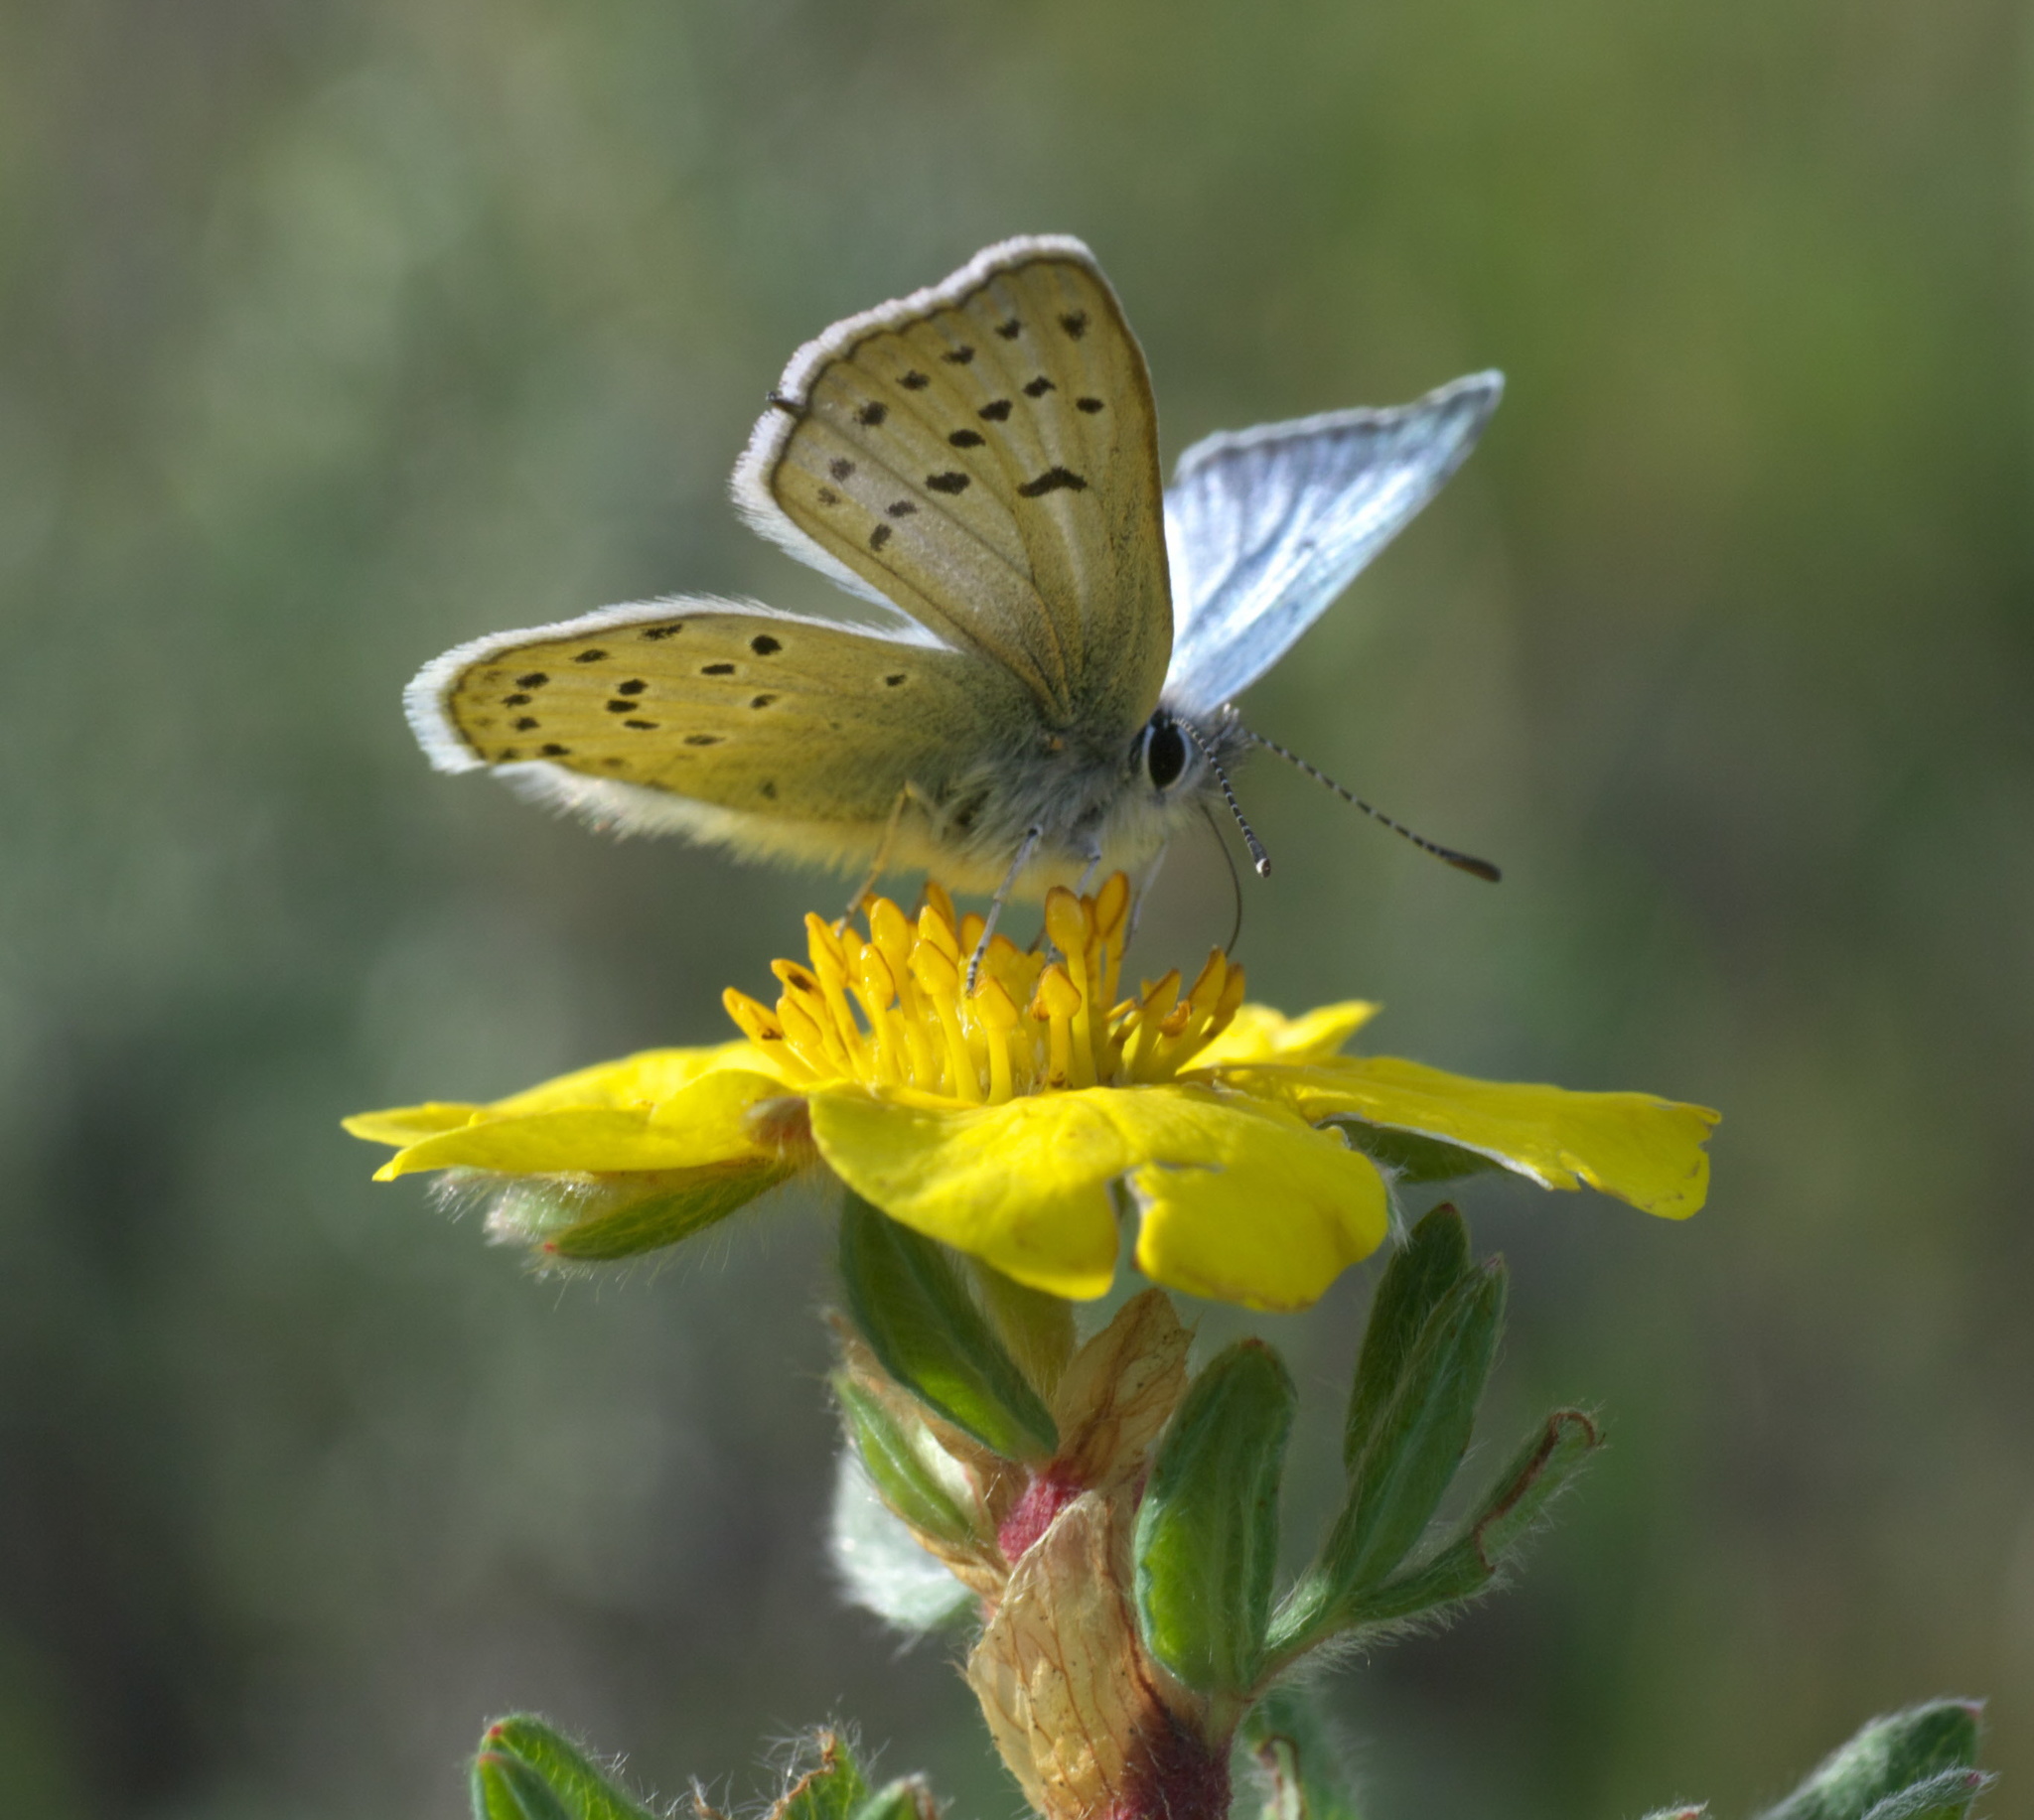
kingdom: Animalia
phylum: Arthropoda
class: Insecta
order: Lepidoptera
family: Lycaenidae
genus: Icaricia
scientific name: Icaricia saepiolus
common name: Greenish blue
